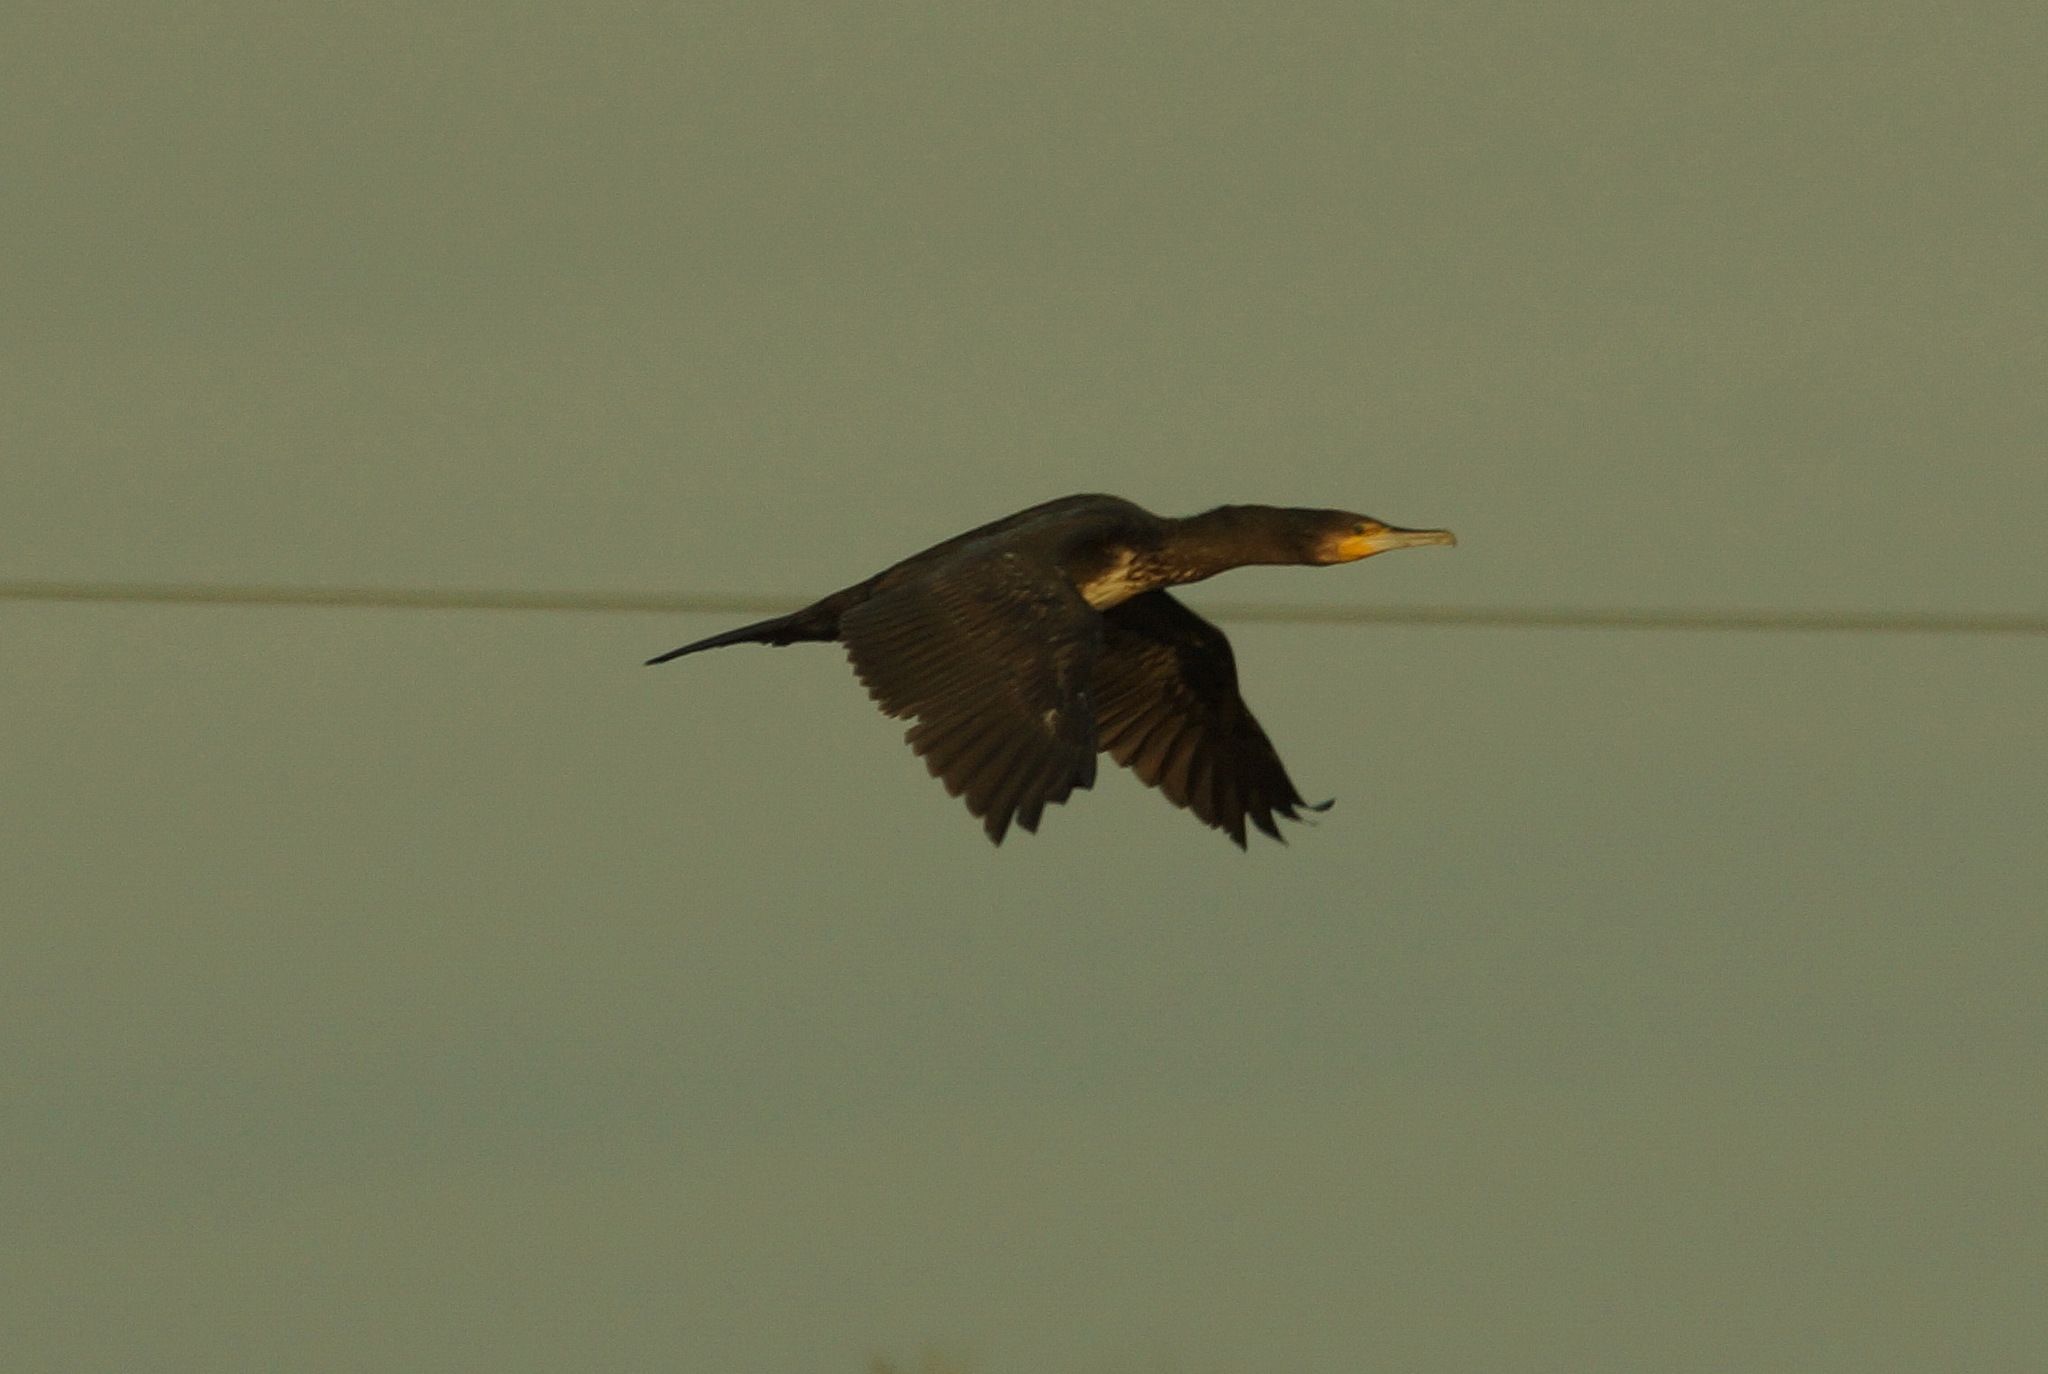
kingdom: Animalia
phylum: Chordata
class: Aves
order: Suliformes
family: Phalacrocoracidae
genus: Phalacrocorax
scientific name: Phalacrocorax carbo
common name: Great cormorant
